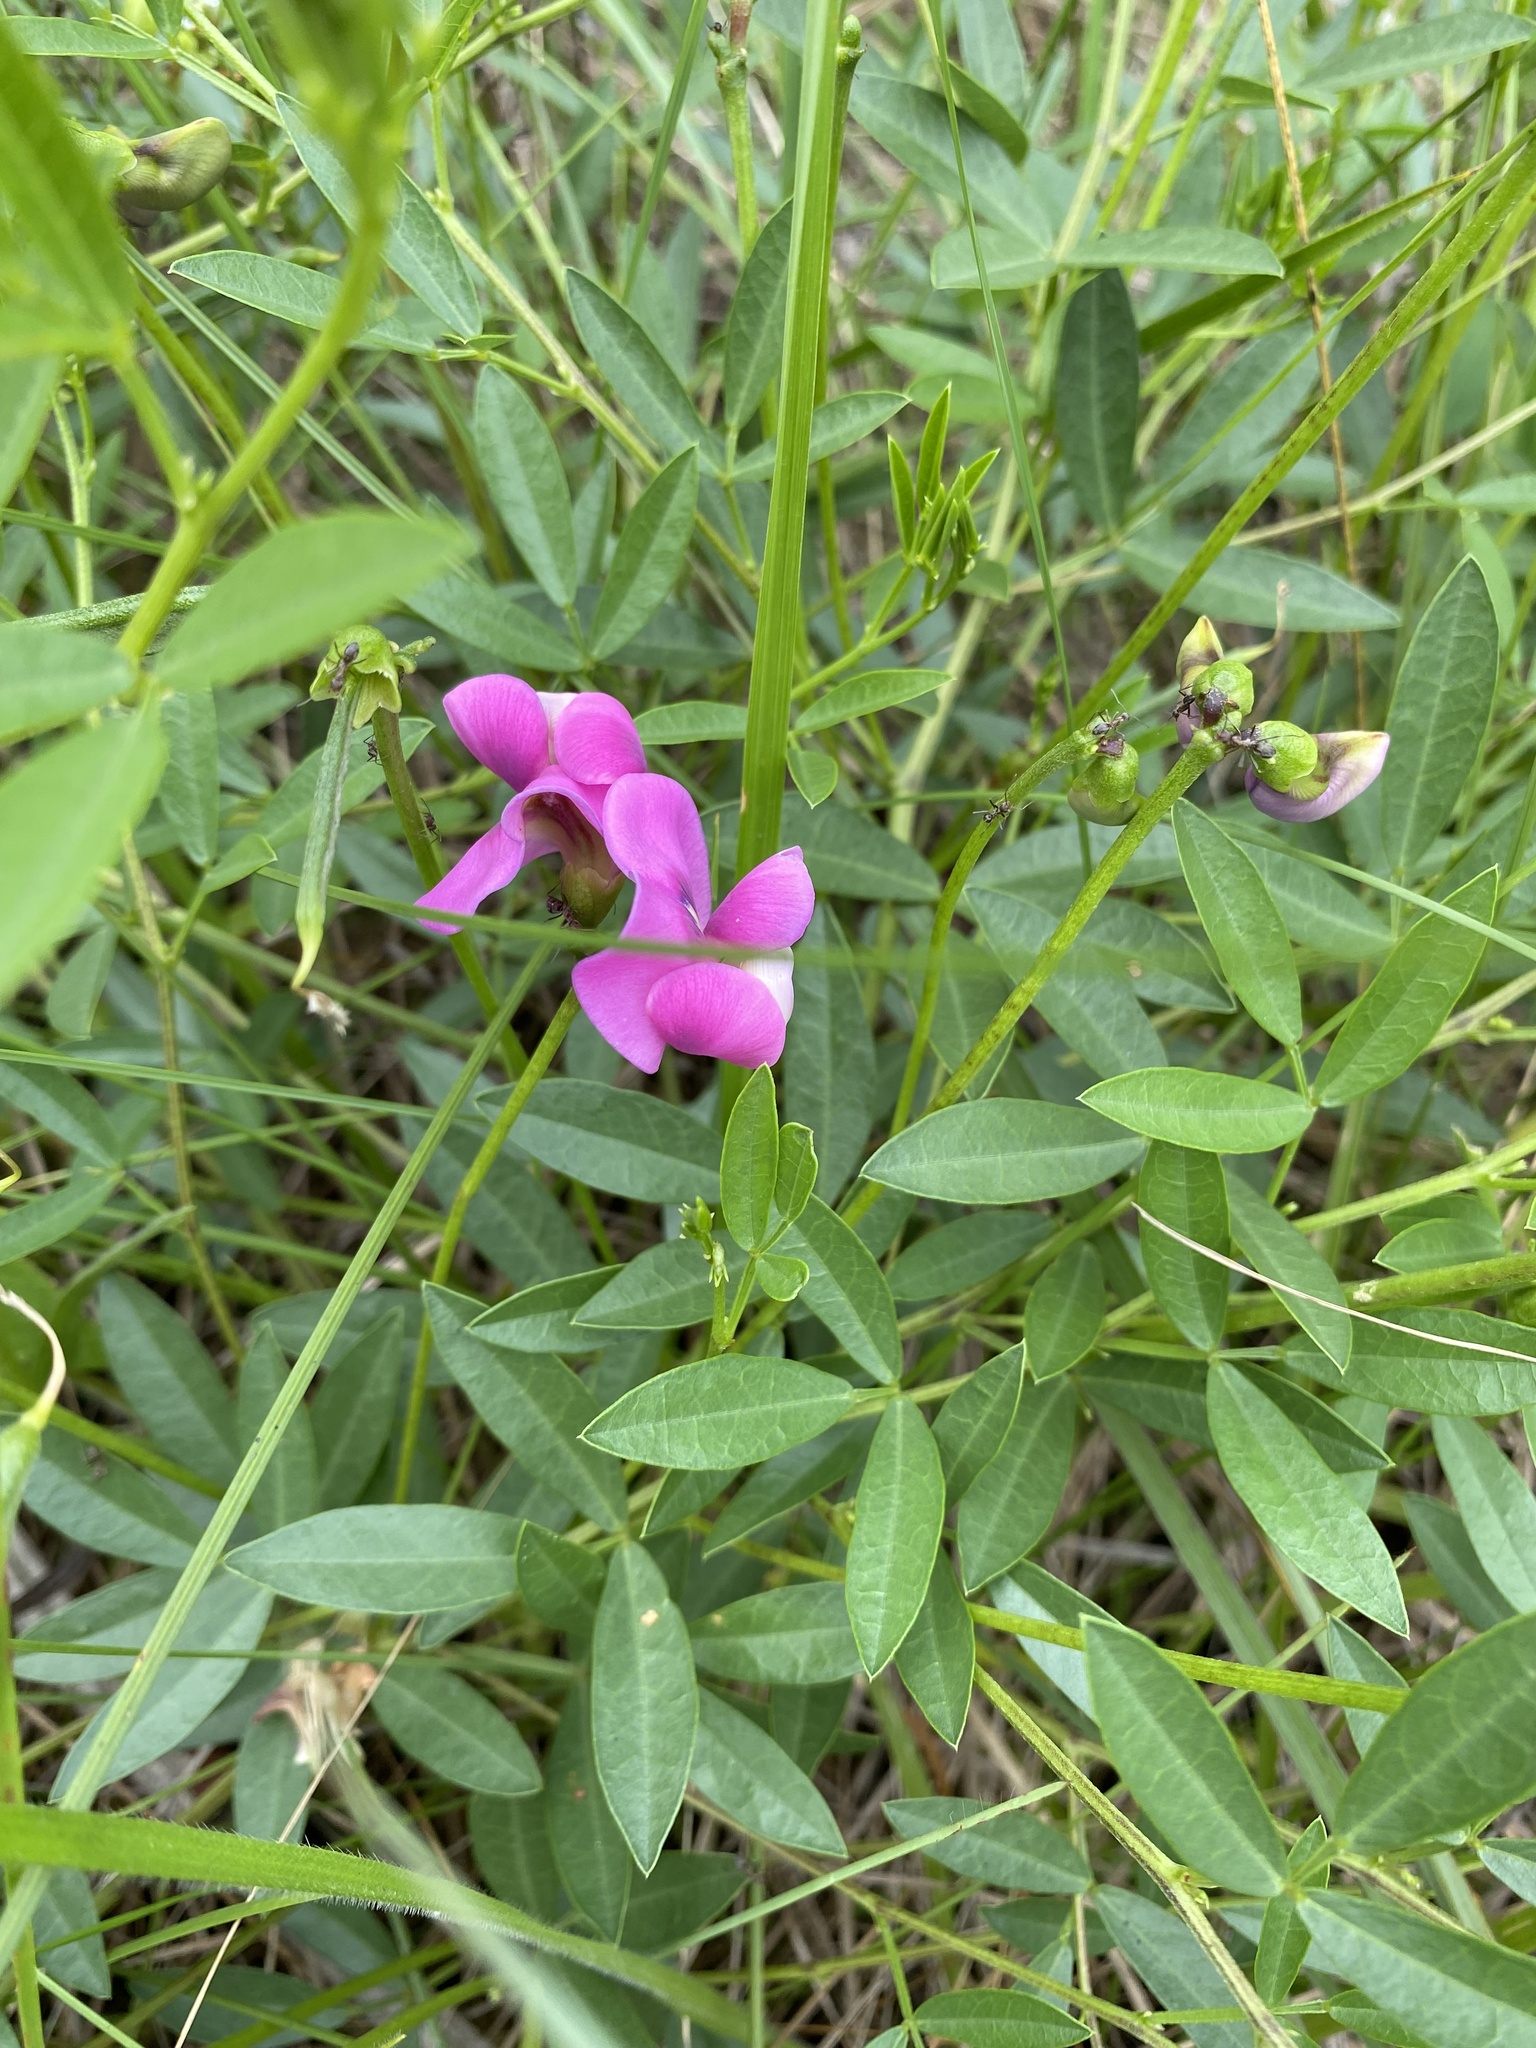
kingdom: Plantae
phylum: Tracheophyta
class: Magnoliopsida
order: Fabales
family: Fabaceae
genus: Sphenostylis
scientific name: Sphenostylis angustifolia
